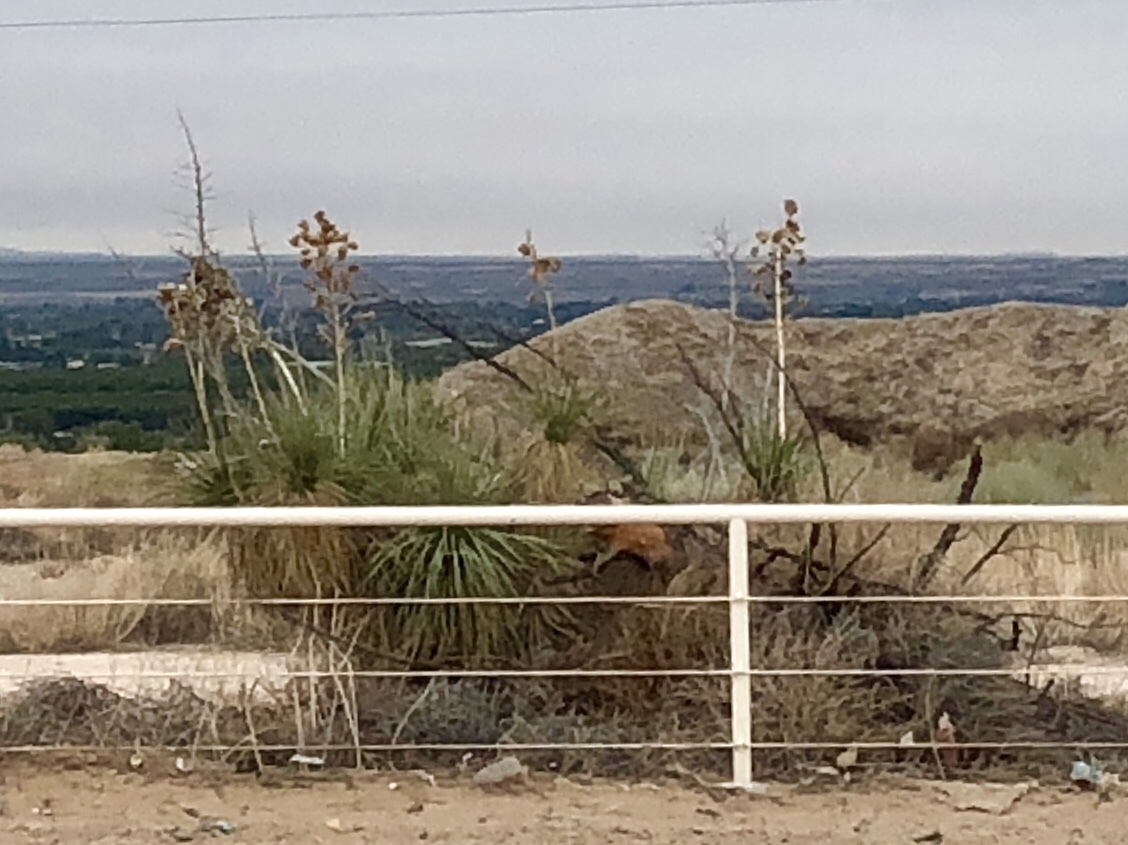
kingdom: Plantae
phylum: Tracheophyta
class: Liliopsida
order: Asparagales
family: Asparagaceae
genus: Yucca
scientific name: Yucca elata
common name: Palmella
